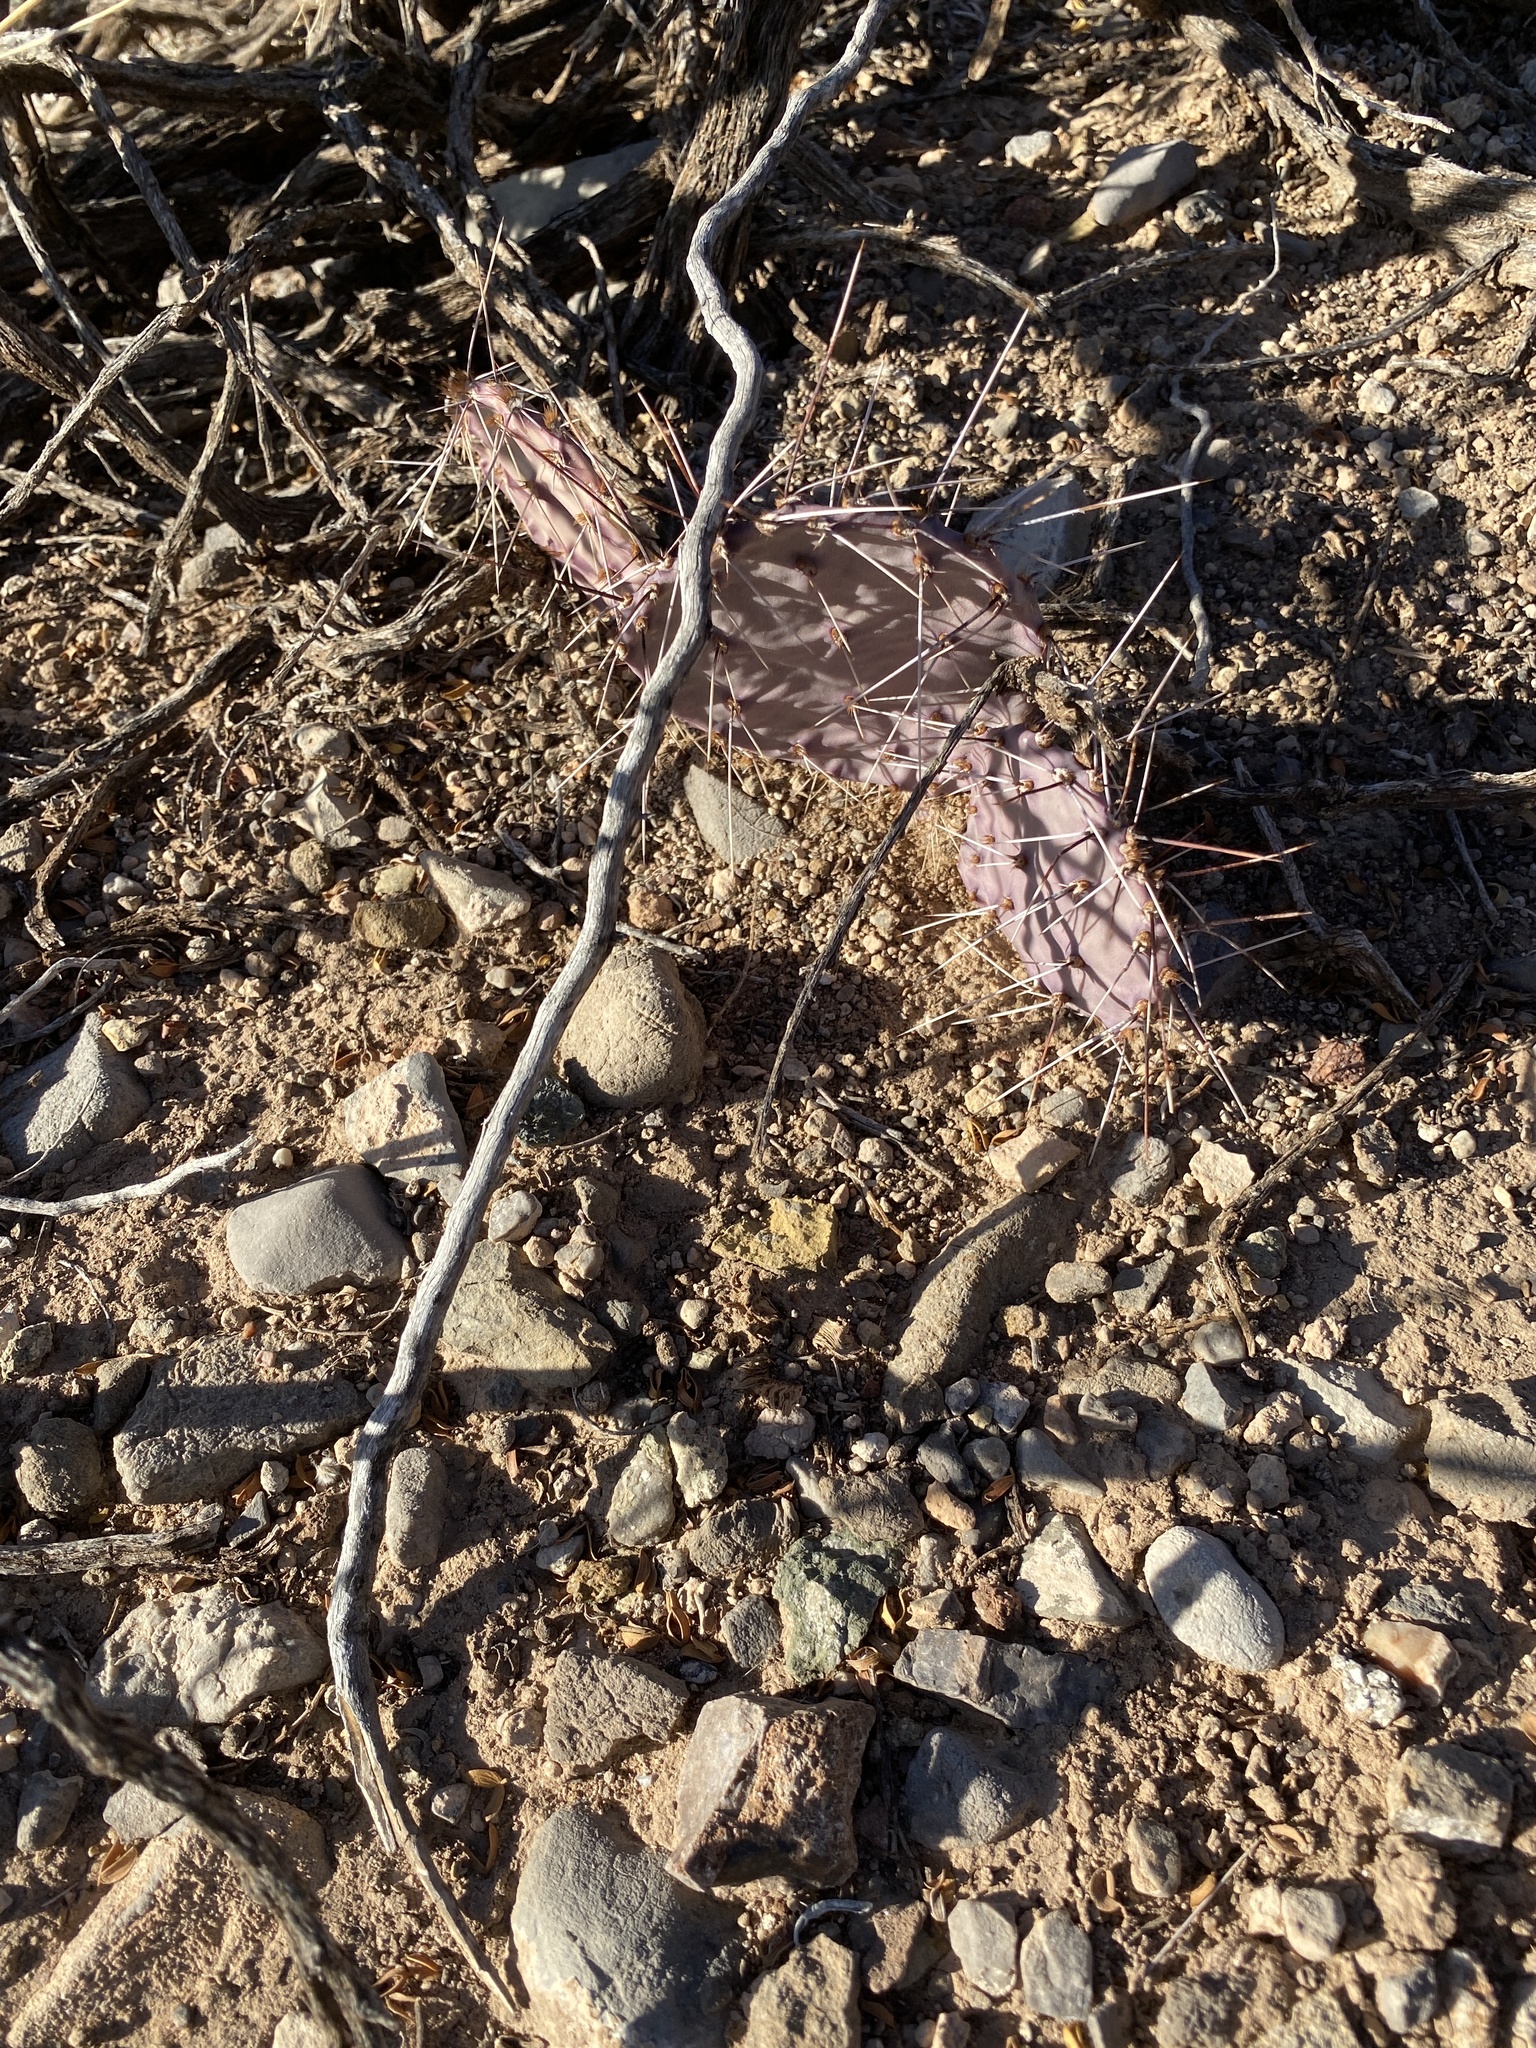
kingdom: Plantae
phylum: Tracheophyta
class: Magnoliopsida
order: Caryophyllales
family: Cactaceae
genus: Opuntia
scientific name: Opuntia macrocentra
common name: Purple prickly-pear
